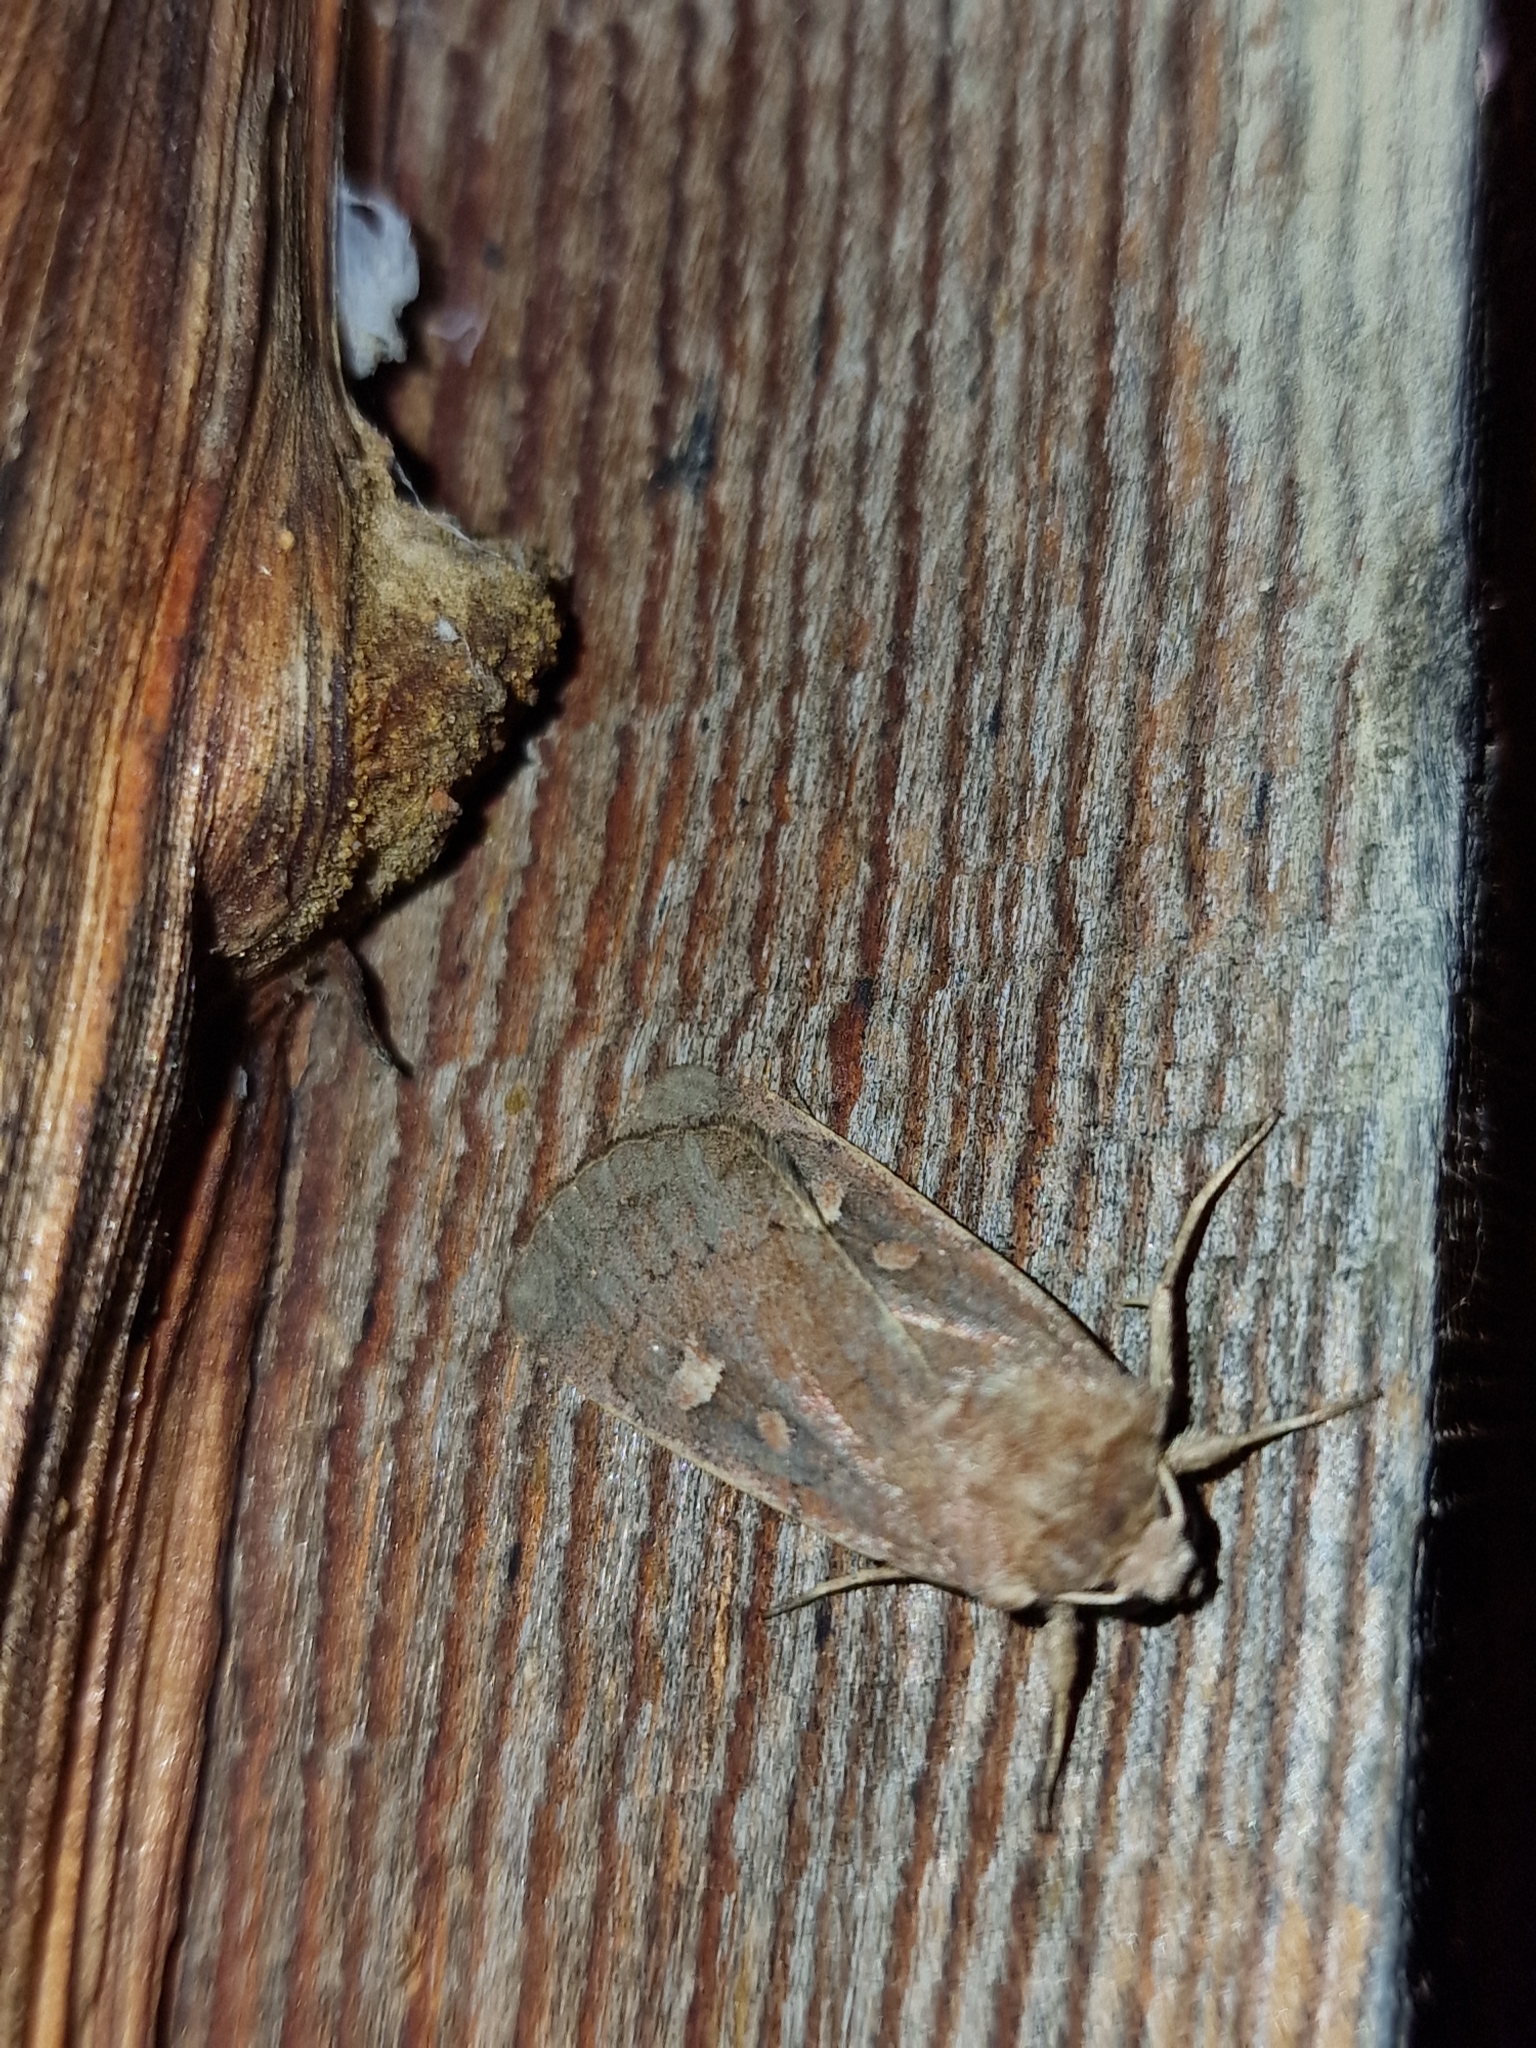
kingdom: Animalia
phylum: Arthropoda
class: Insecta
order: Lepidoptera
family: Noctuidae
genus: Xestia
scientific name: Xestia xanthographa
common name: Square-spot rustic
